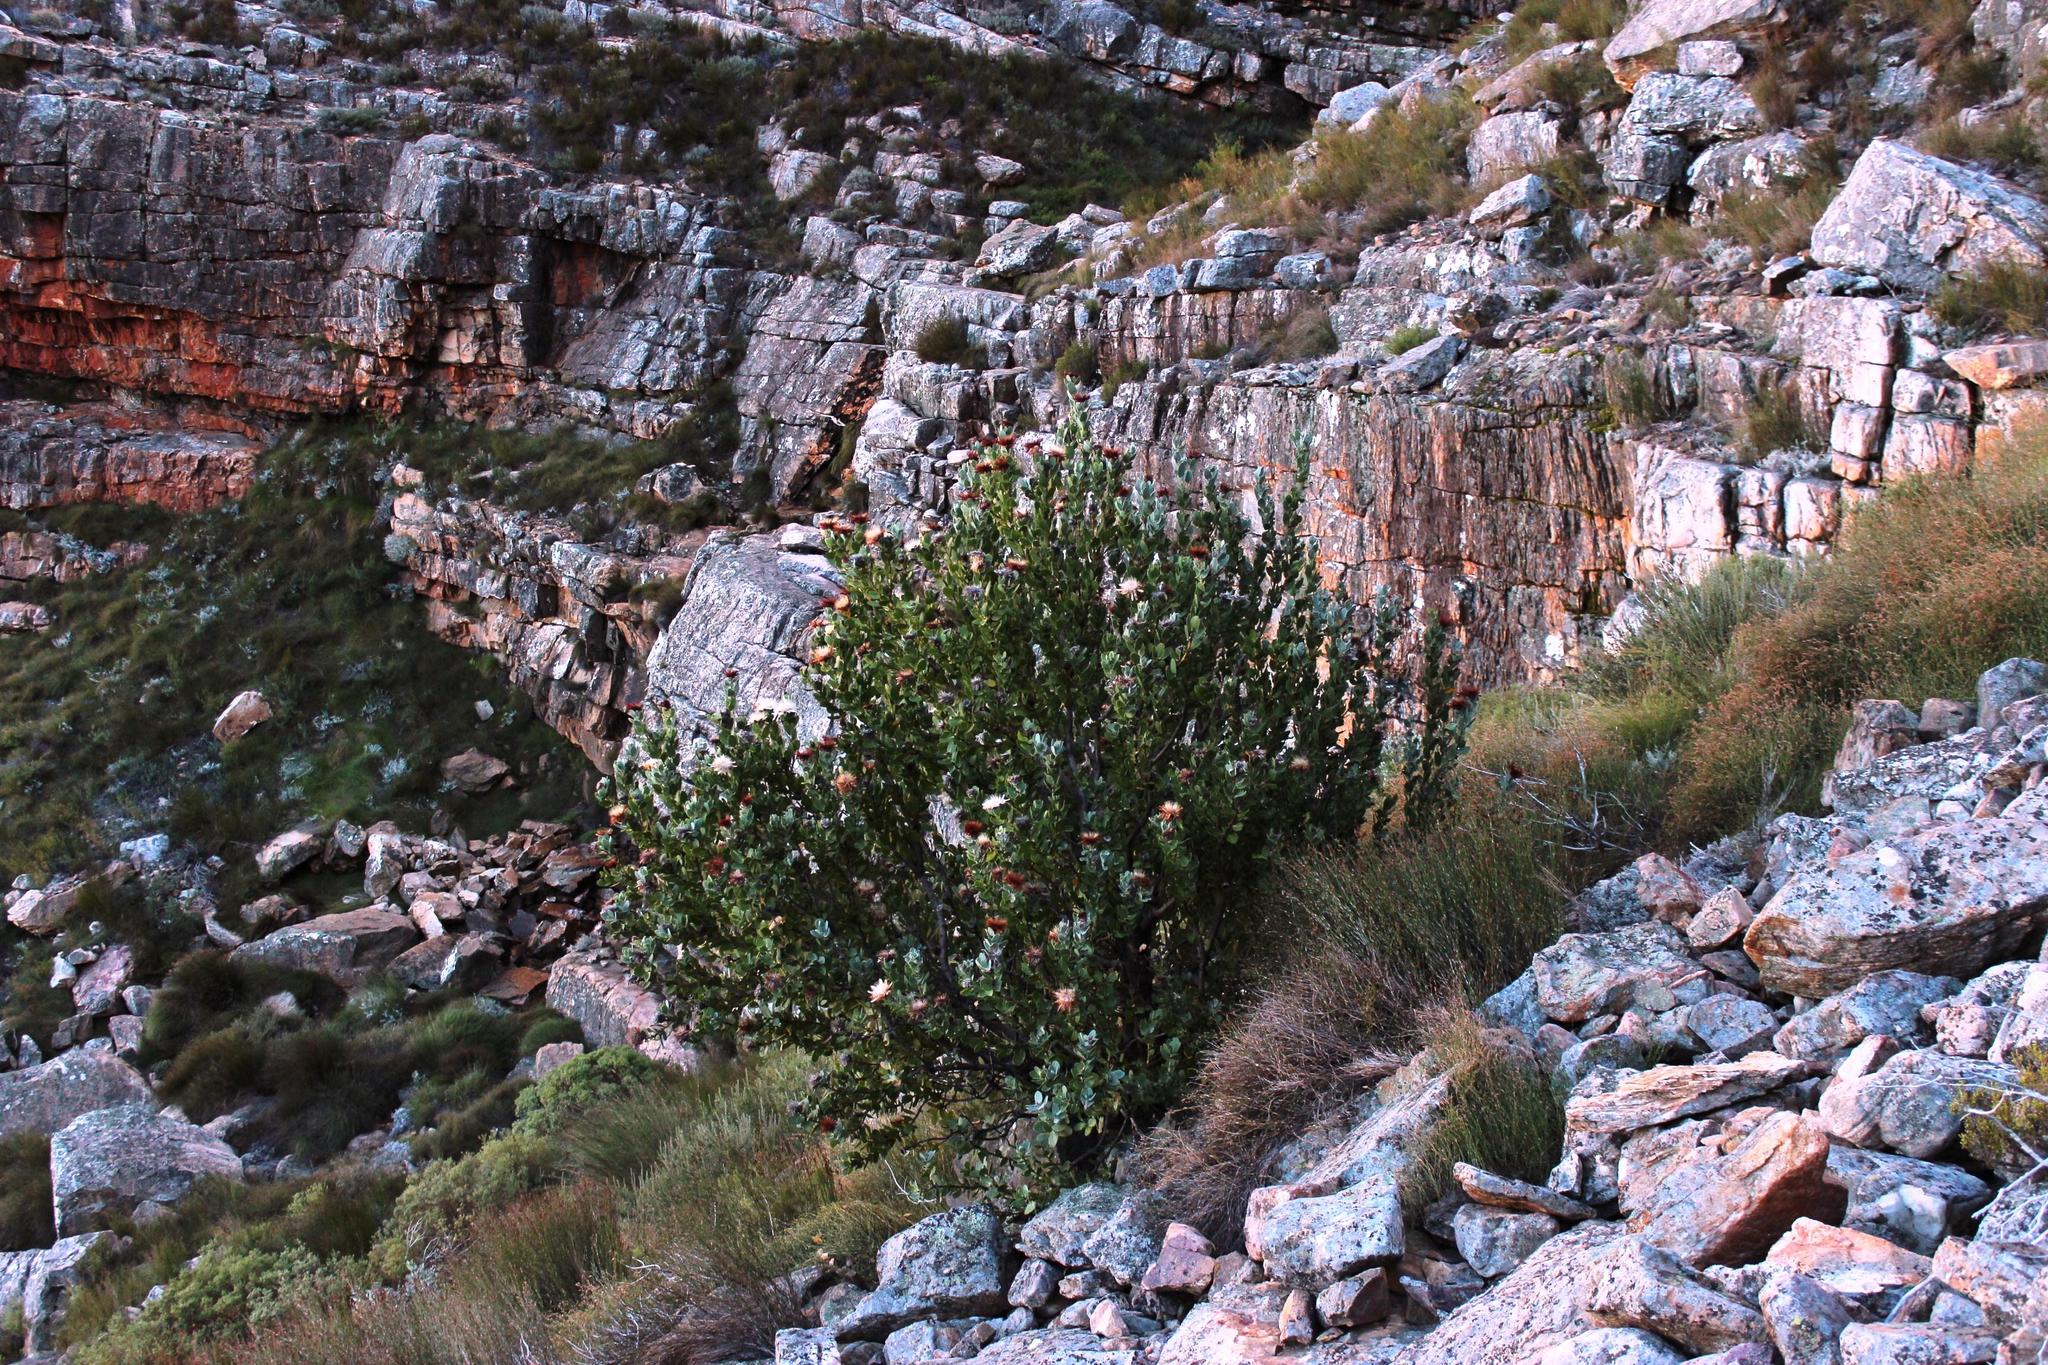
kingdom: Plantae
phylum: Tracheophyta
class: Magnoliopsida
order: Proteales
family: Proteaceae
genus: Protea
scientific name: Protea punctata
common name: Water sugarbush
